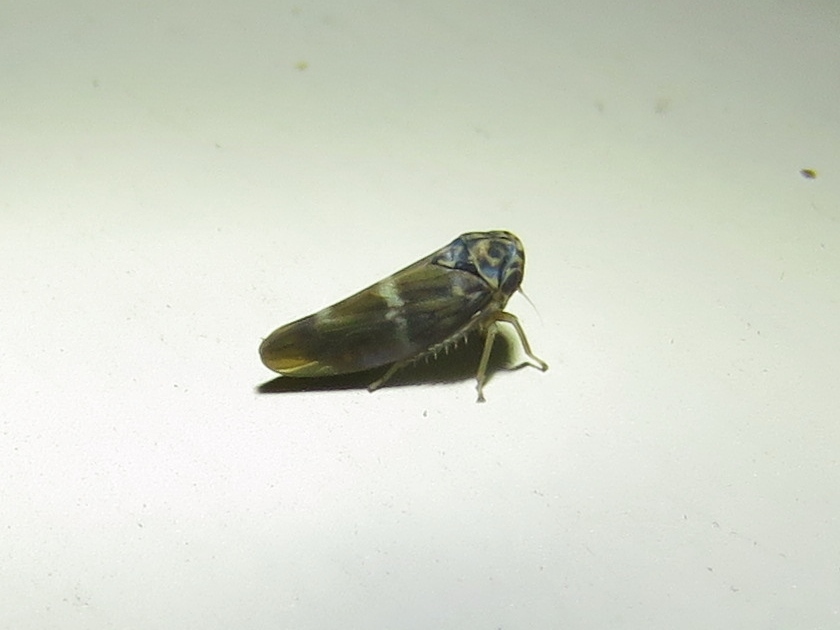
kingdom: Animalia
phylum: Arthropoda
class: Insecta
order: Hemiptera
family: Cicadellidae
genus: Agalliopsis
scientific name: Agalliopsis cervina
